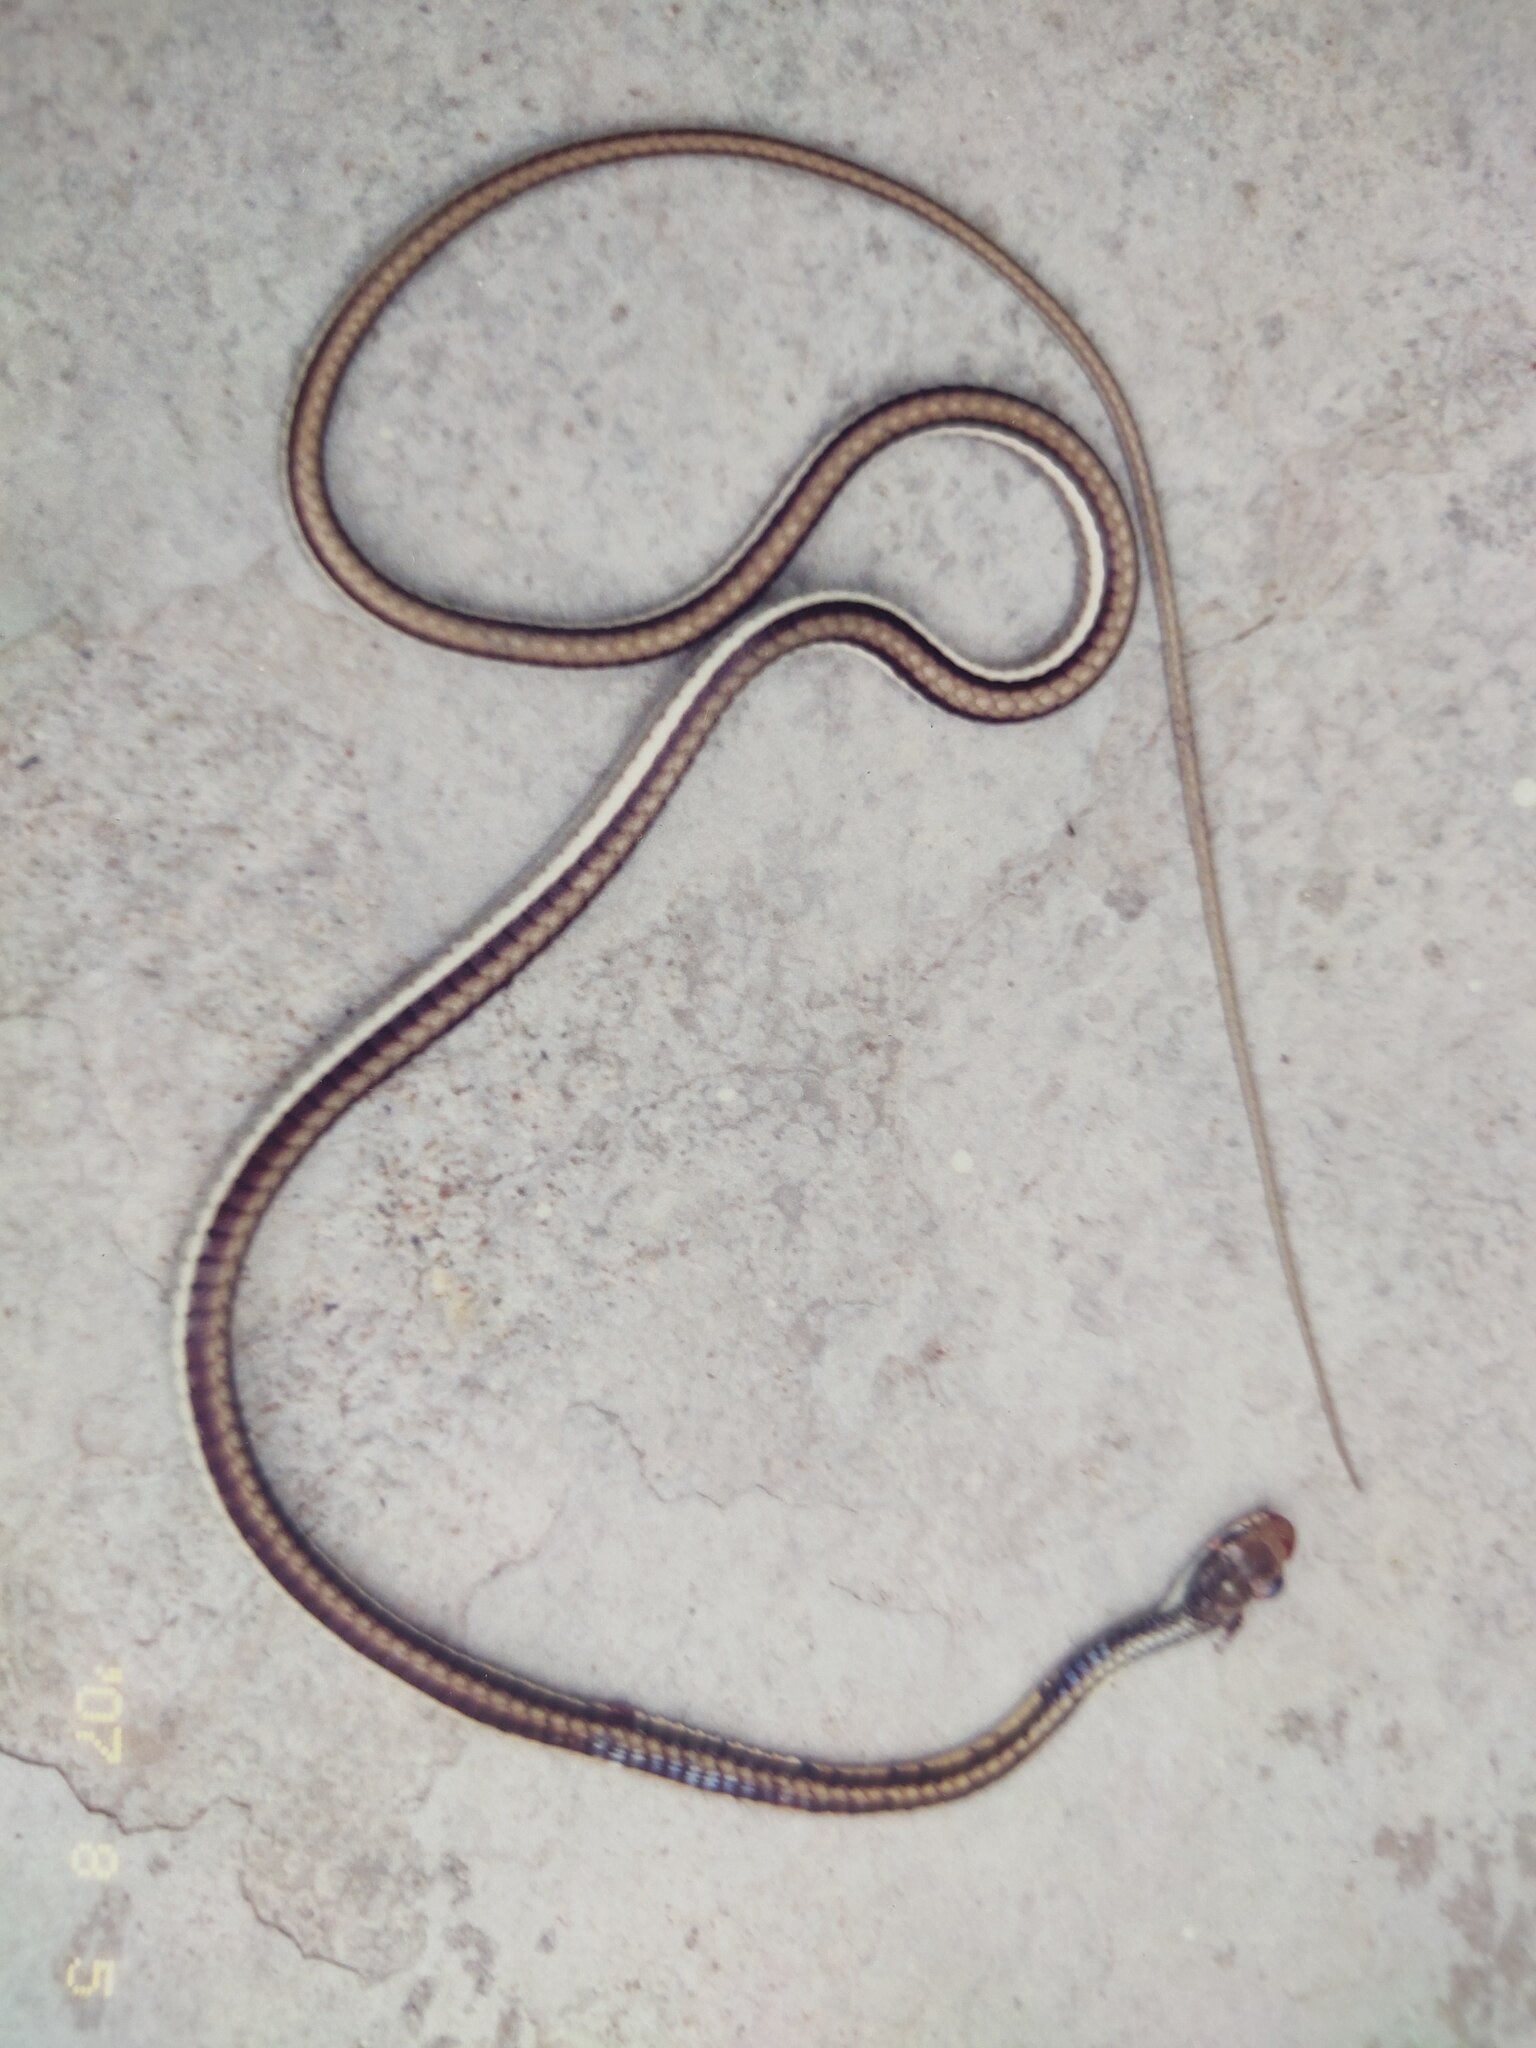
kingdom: Animalia
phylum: Chordata
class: Squamata
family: Colubridae
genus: Dendrelaphis
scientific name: Dendrelaphis tristis
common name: Daudin's bronzeback
